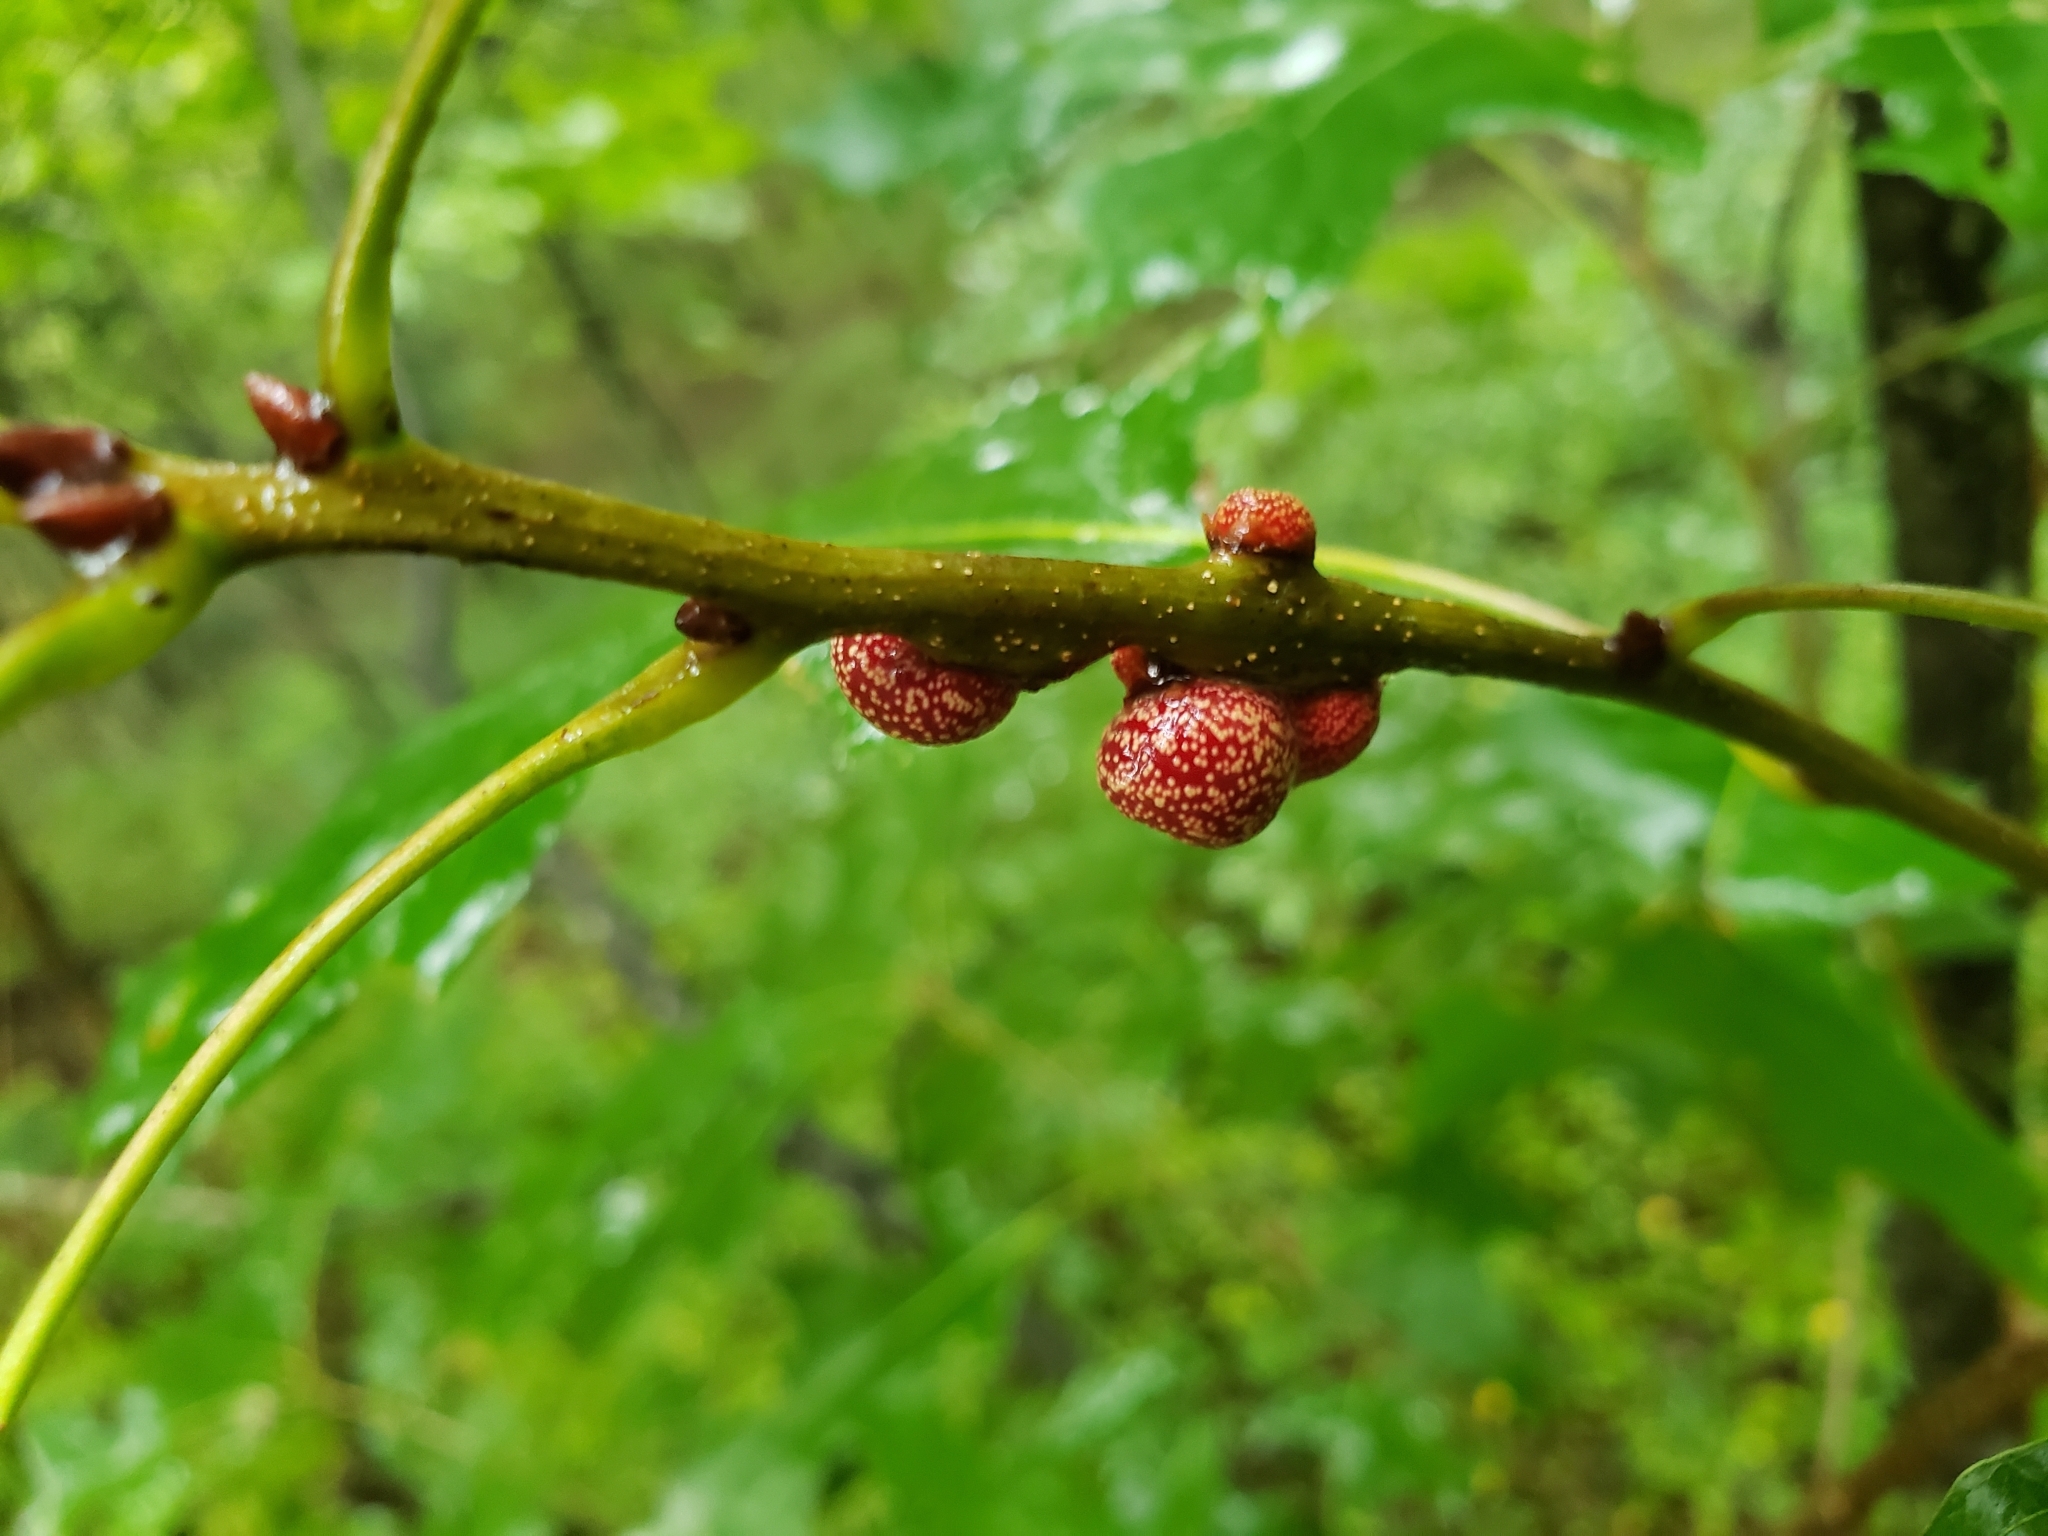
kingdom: Animalia
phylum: Arthropoda
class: Insecta
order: Hymenoptera
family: Cynipidae
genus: Kokkocynips
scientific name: Kokkocynips imbricariae
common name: Banded bullet gall wasp
